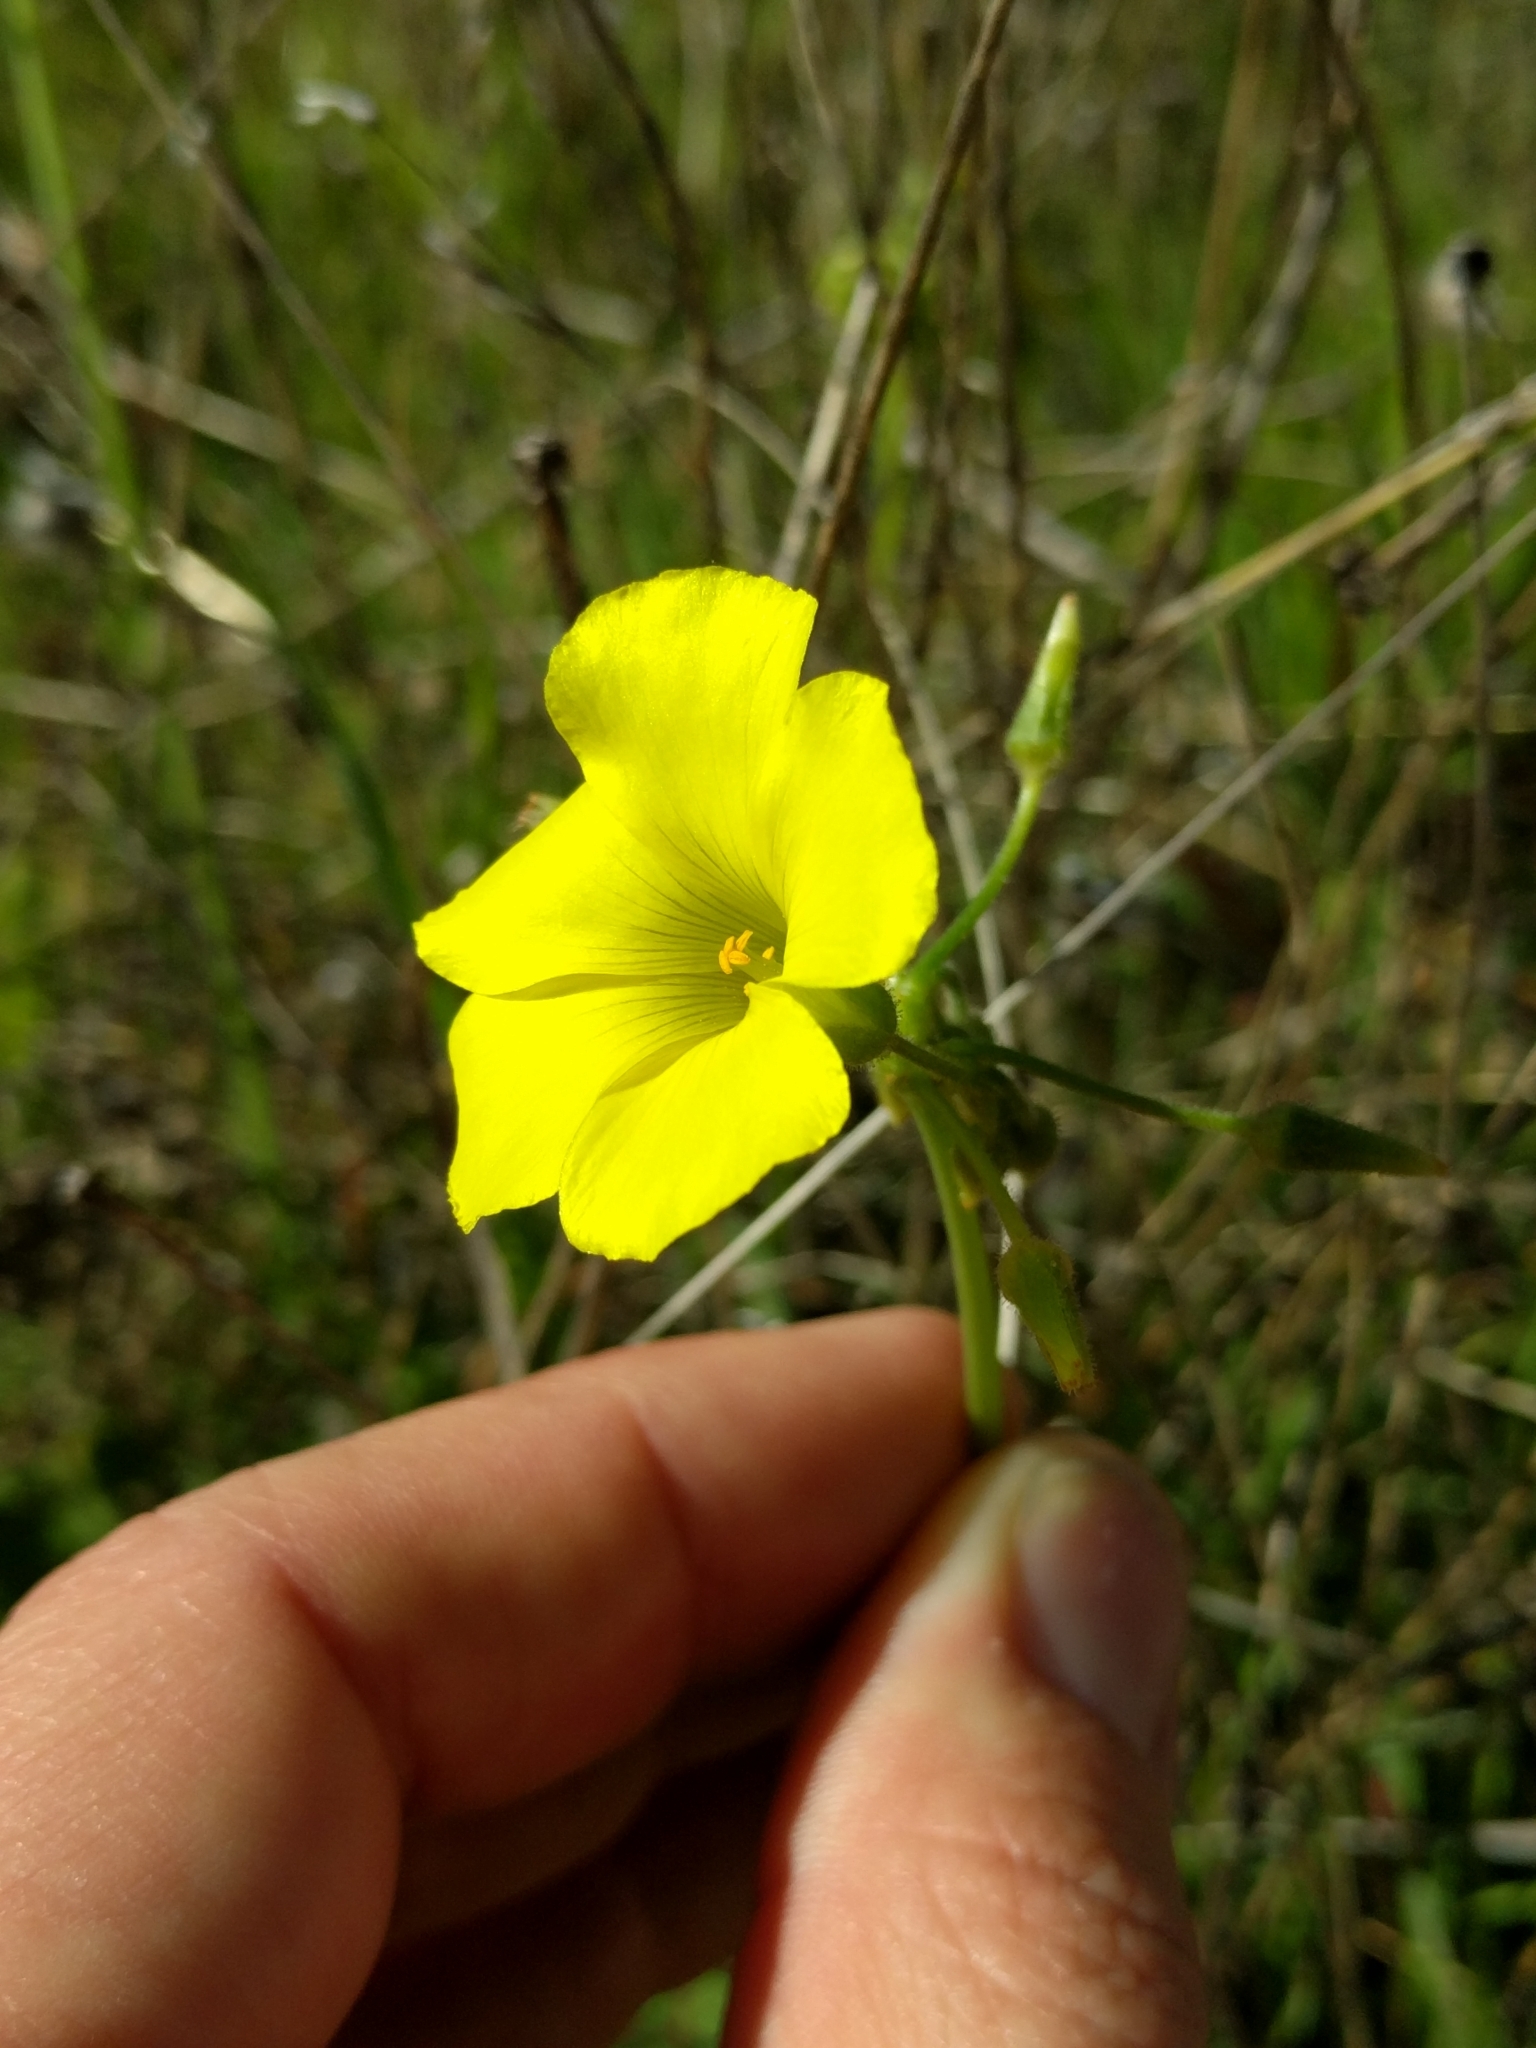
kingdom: Plantae
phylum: Tracheophyta
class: Magnoliopsida
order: Oxalidales
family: Oxalidaceae
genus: Oxalis
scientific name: Oxalis pes-caprae
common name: Bermuda-buttercup
